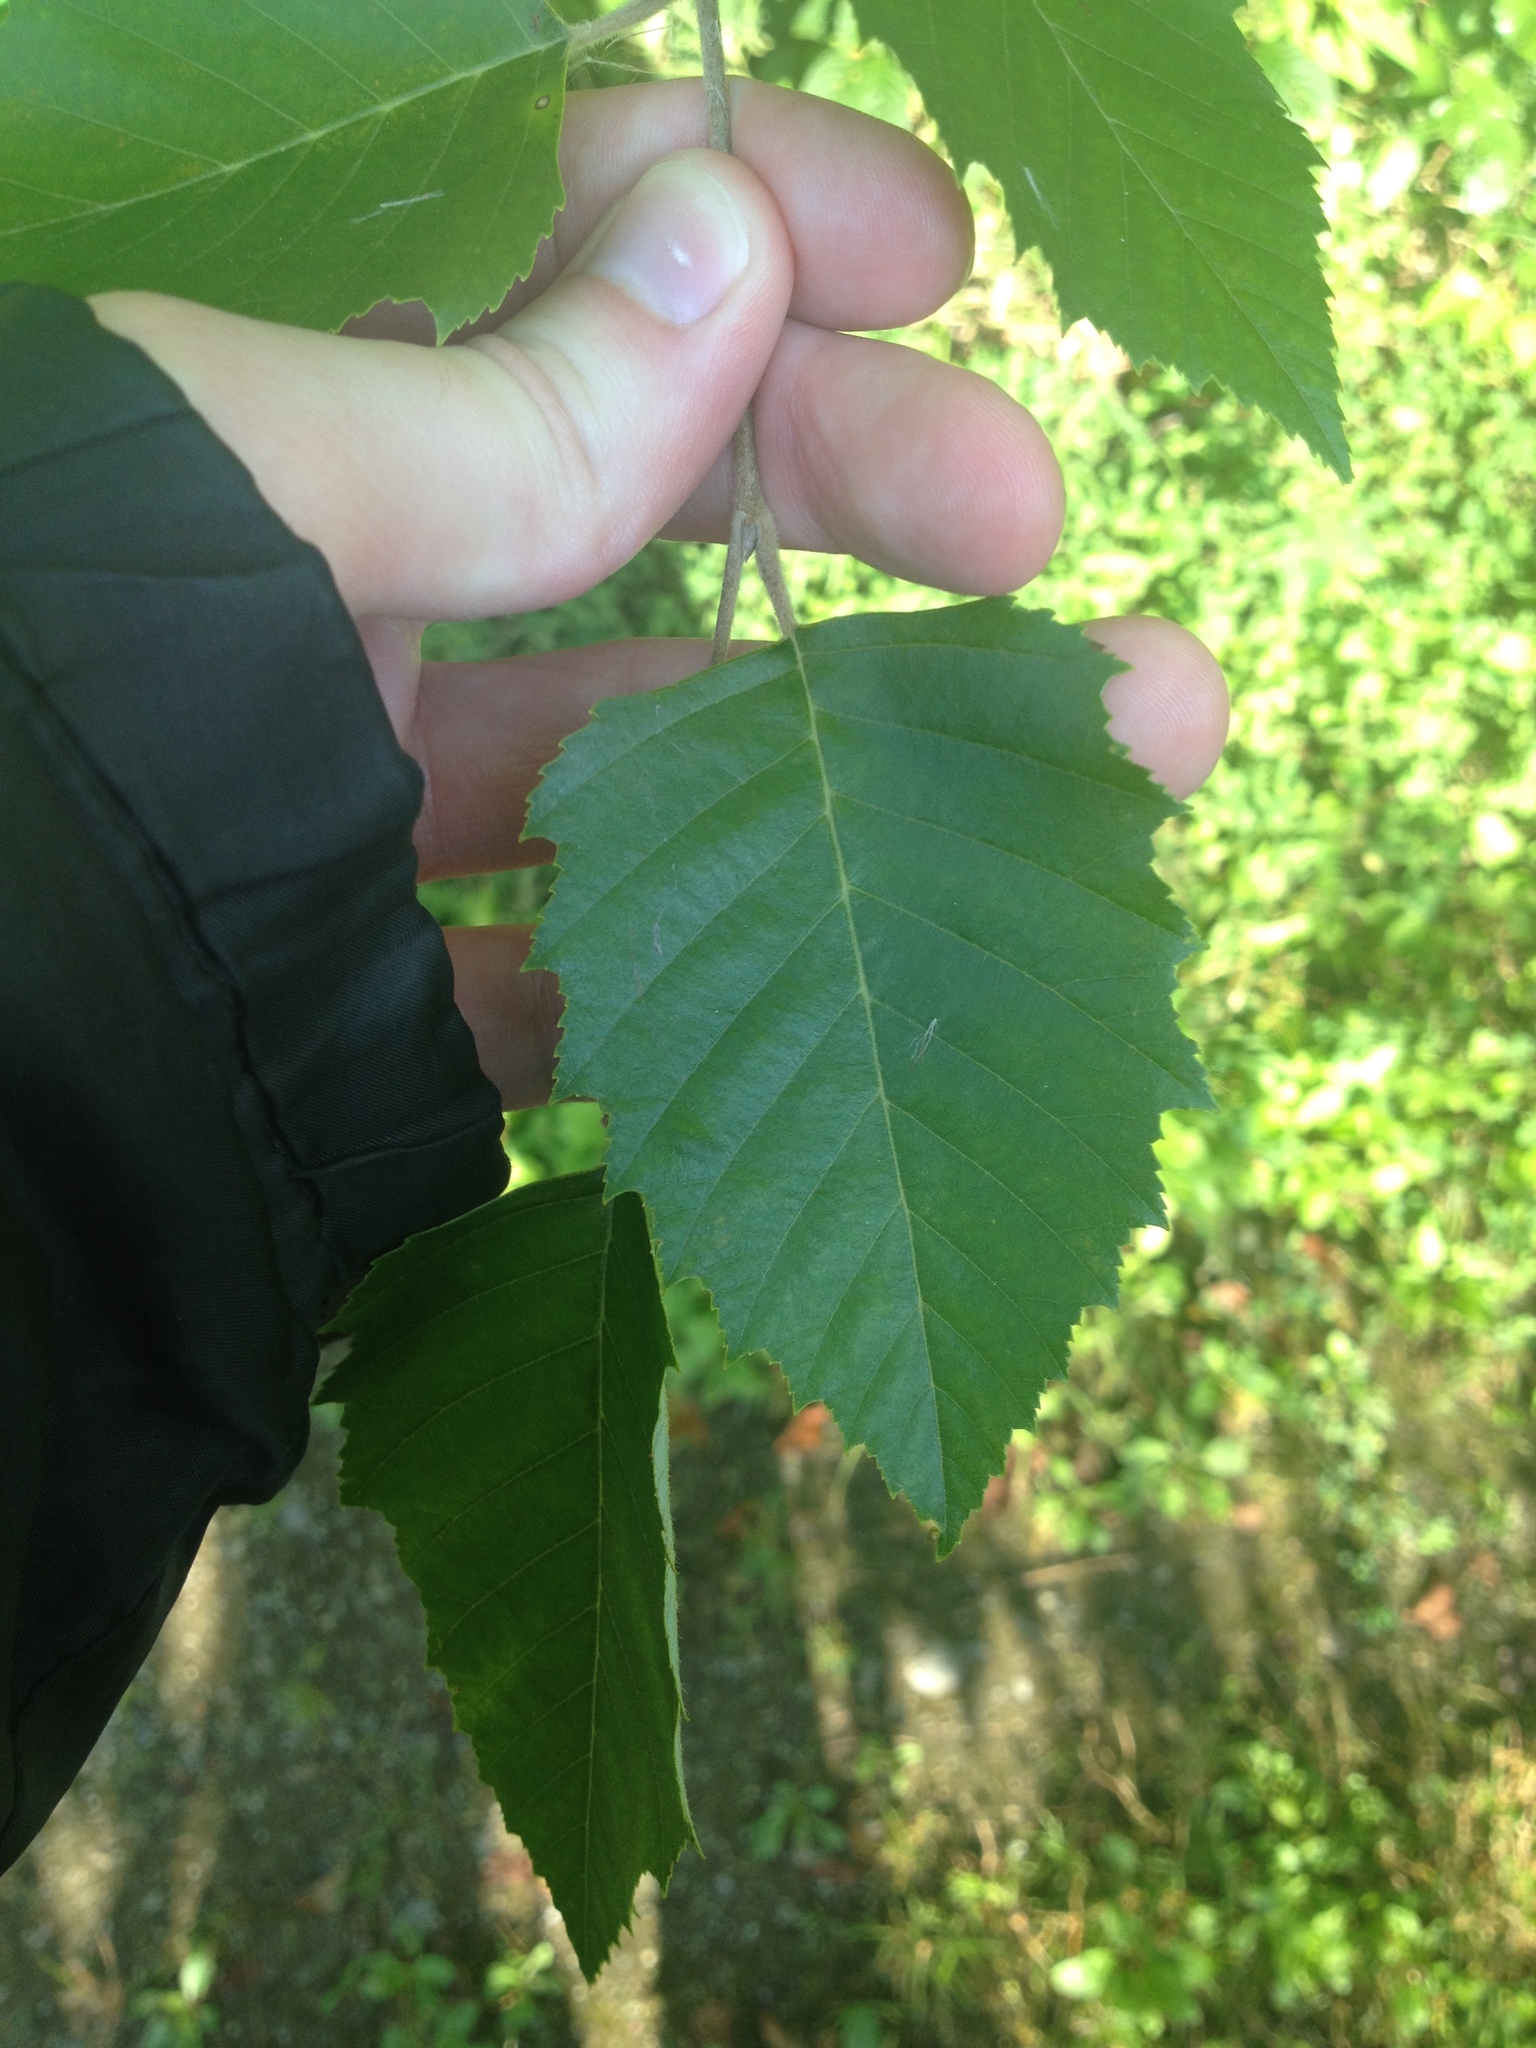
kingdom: Plantae
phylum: Tracheophyta
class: Magnoliopsida
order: Fagales
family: Betulaceae
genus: Betula
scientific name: Betula nigra
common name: Black birch
